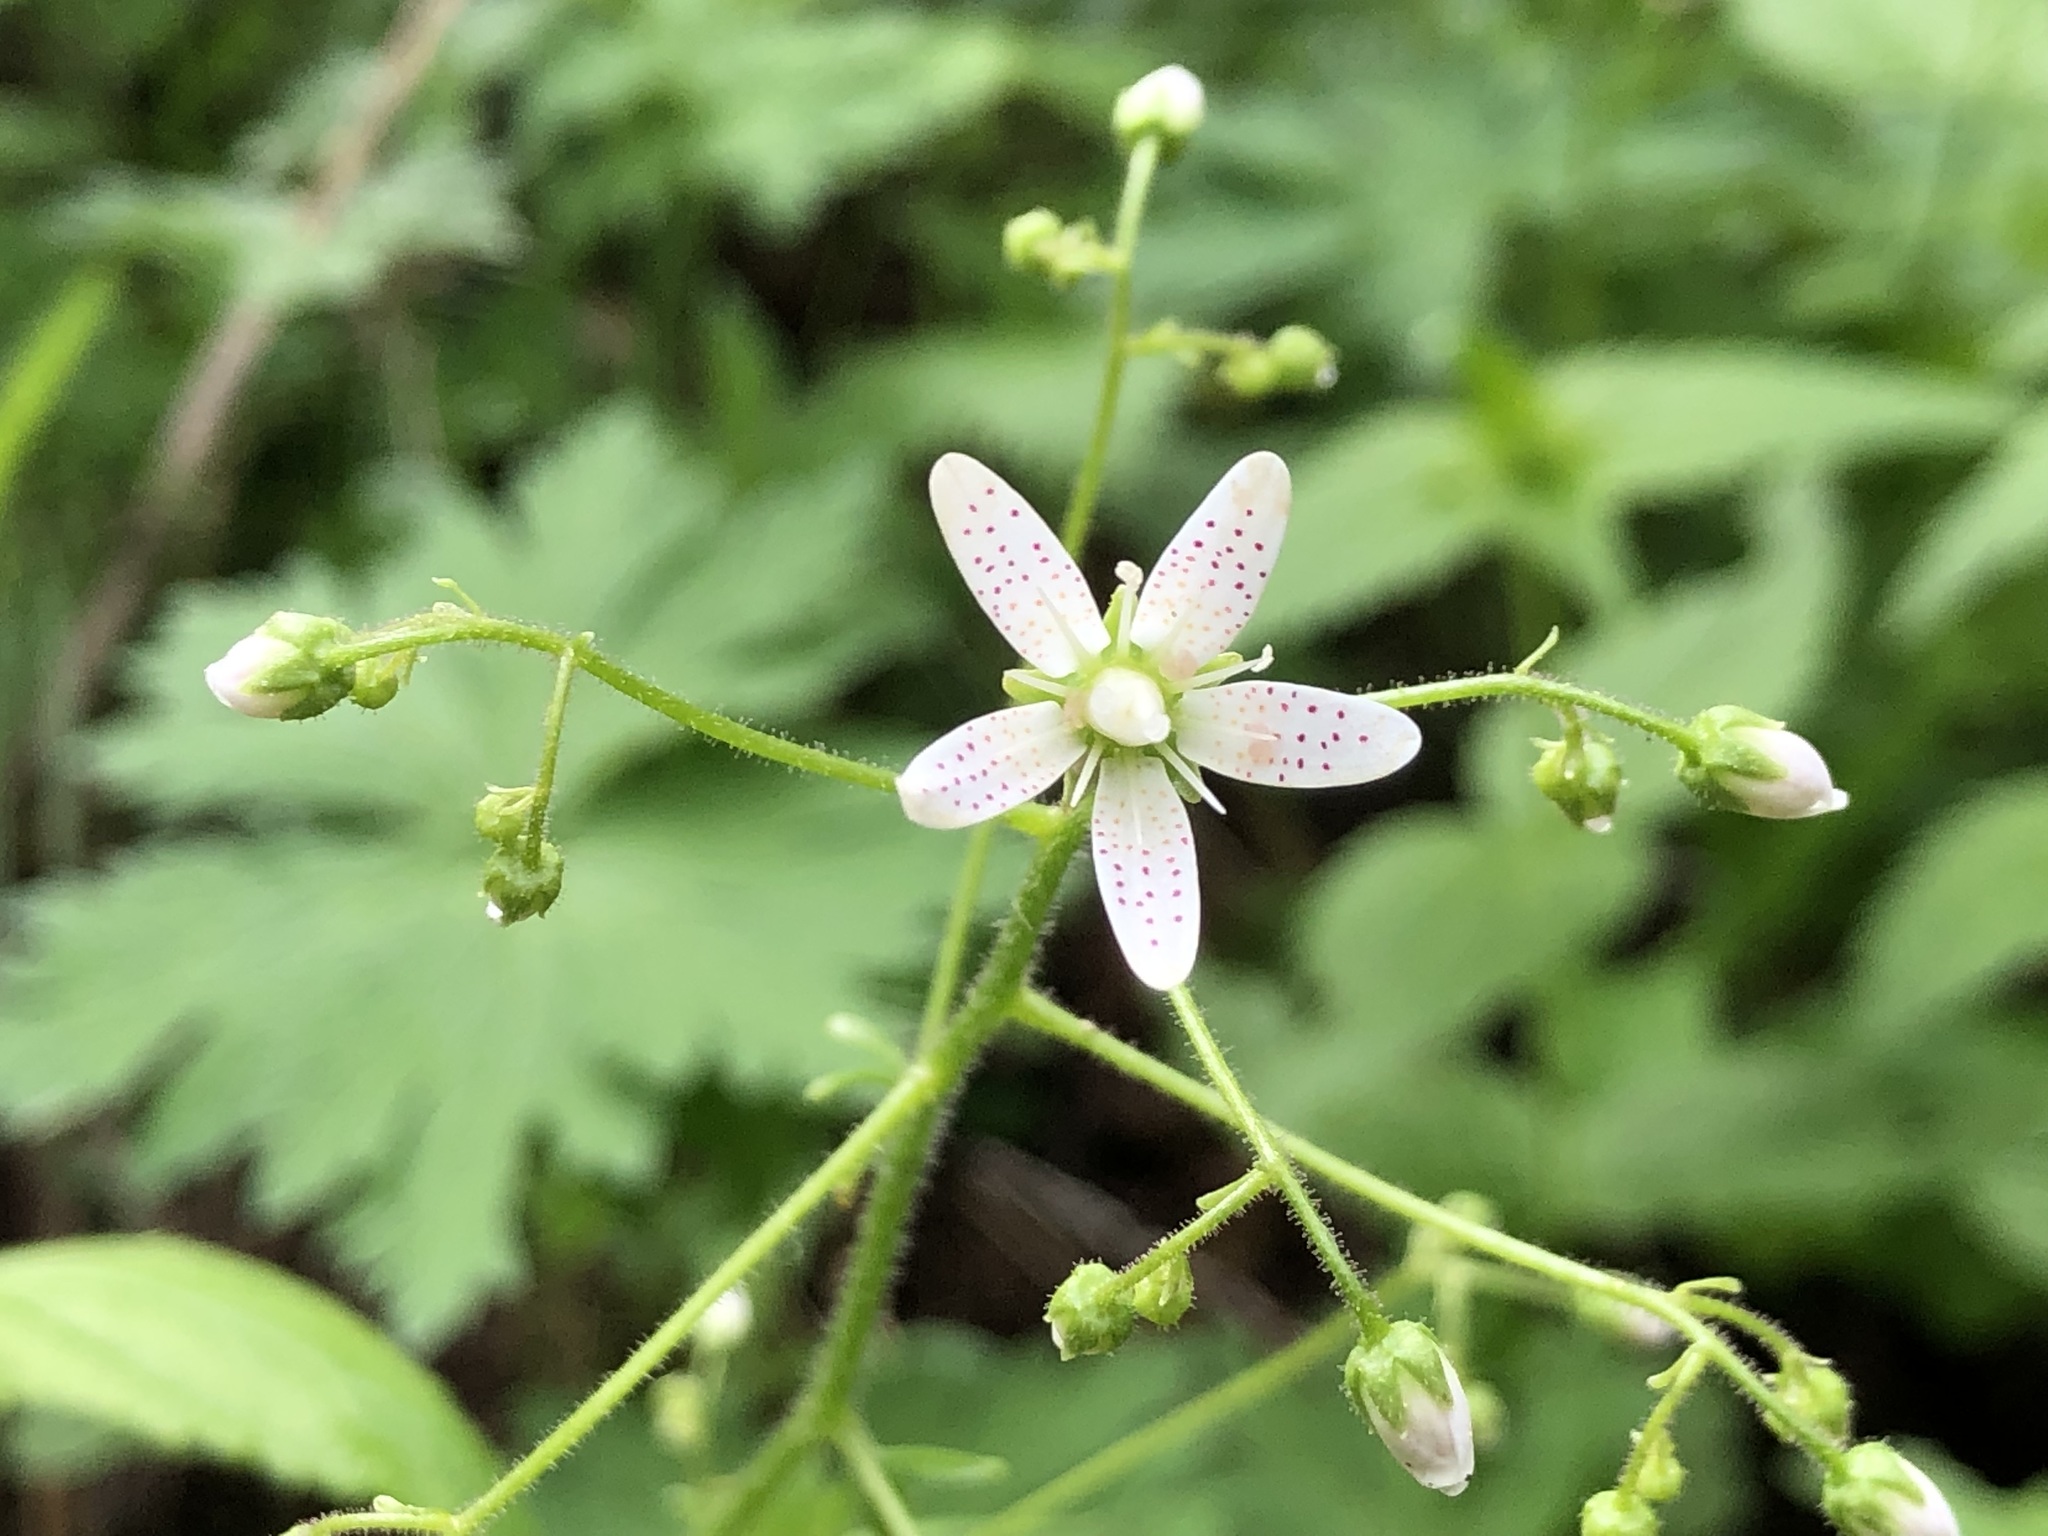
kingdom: Plantae
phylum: Tracheophyta
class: Magnoliopsida
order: Saxifragales
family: Saxifragaceae
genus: Saxifraga
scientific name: Saxifraga rotundifolia
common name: Round-leaved saxifrage
